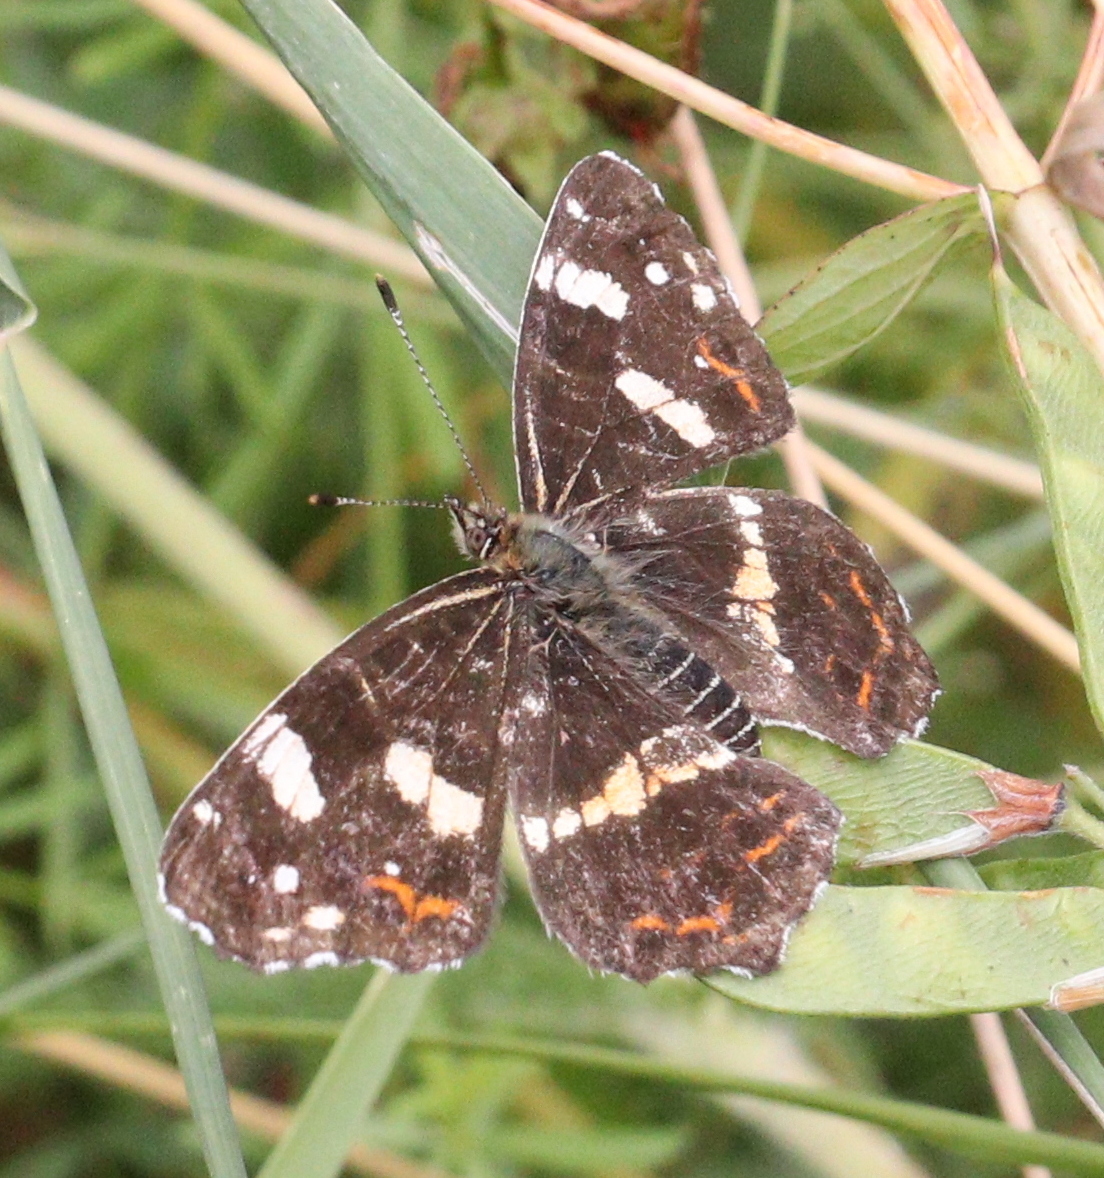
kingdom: Animalia
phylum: Arthropoda
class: Insecta
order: Lepidoptera
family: Nymphalidae
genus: Araschnia
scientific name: Araschnia levana
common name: Map butterfly
